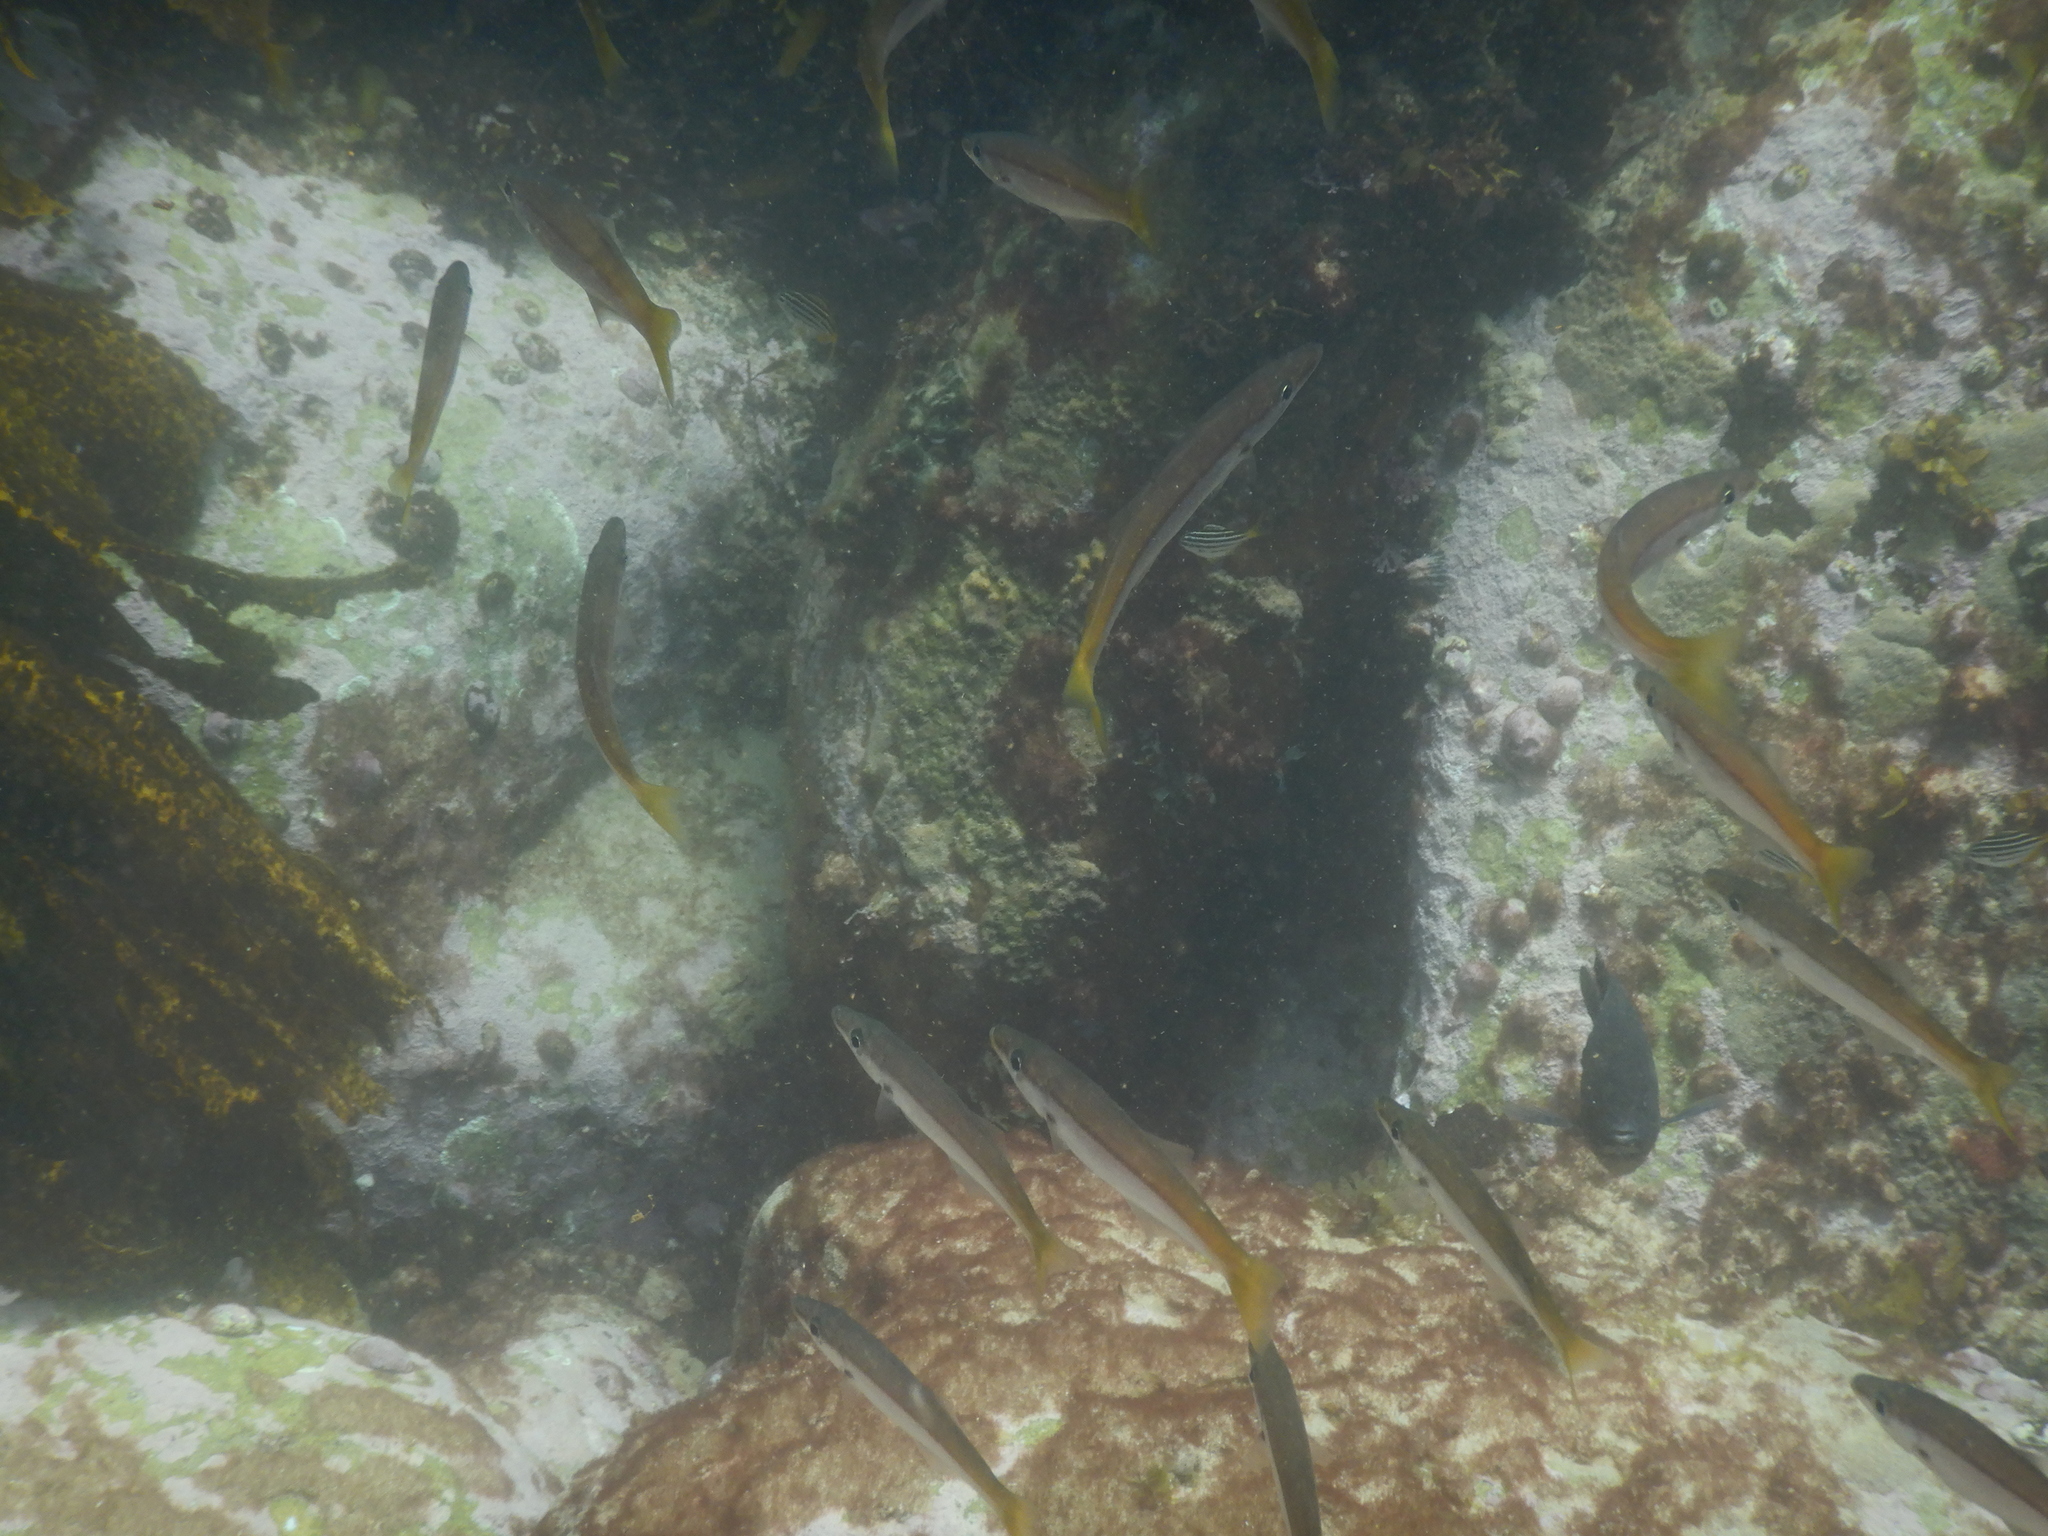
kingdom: Animalia
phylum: Chordata
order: Perciformes
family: Dinolestidae
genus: Dinolestes
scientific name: Dinolestes lewini
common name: Jack pike
